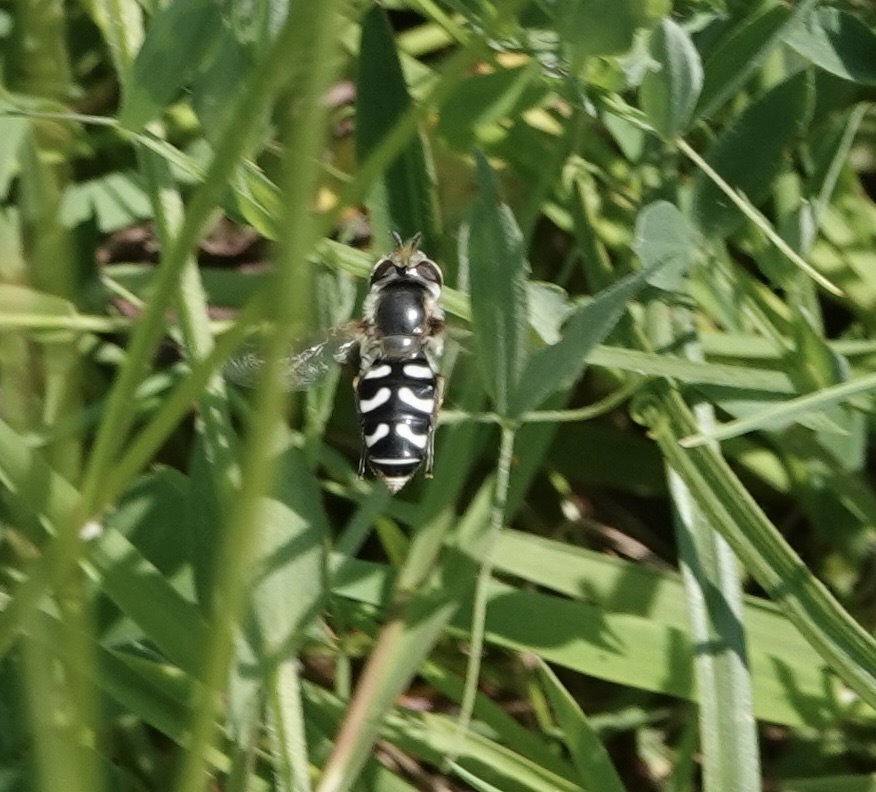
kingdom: Animalia
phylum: Arthropoda
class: Insecta
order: Diptera
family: Syrphidae
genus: Scaeva
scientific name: Scaeva pyrastri
